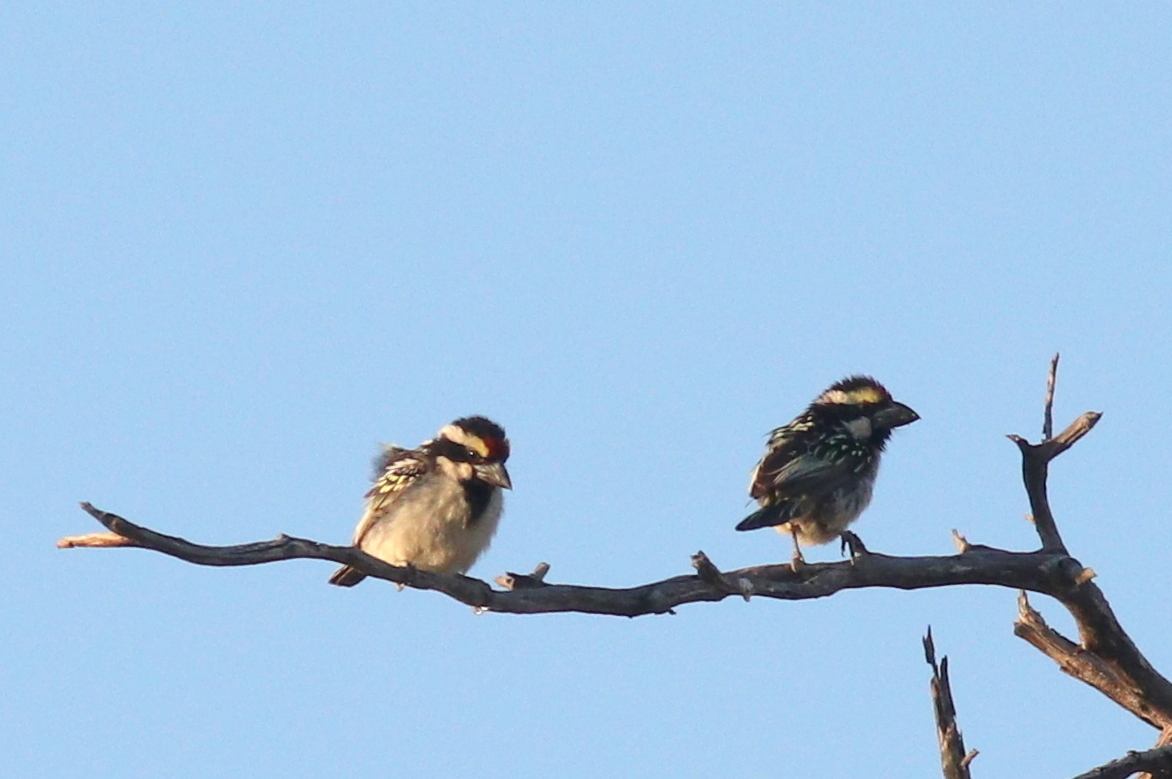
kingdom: Animalia
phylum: Chordata
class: Aves
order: Piciformes
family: Lybiidae
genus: Tricholaema
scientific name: Tricholaema leucomelas
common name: Acacia pied barbet
